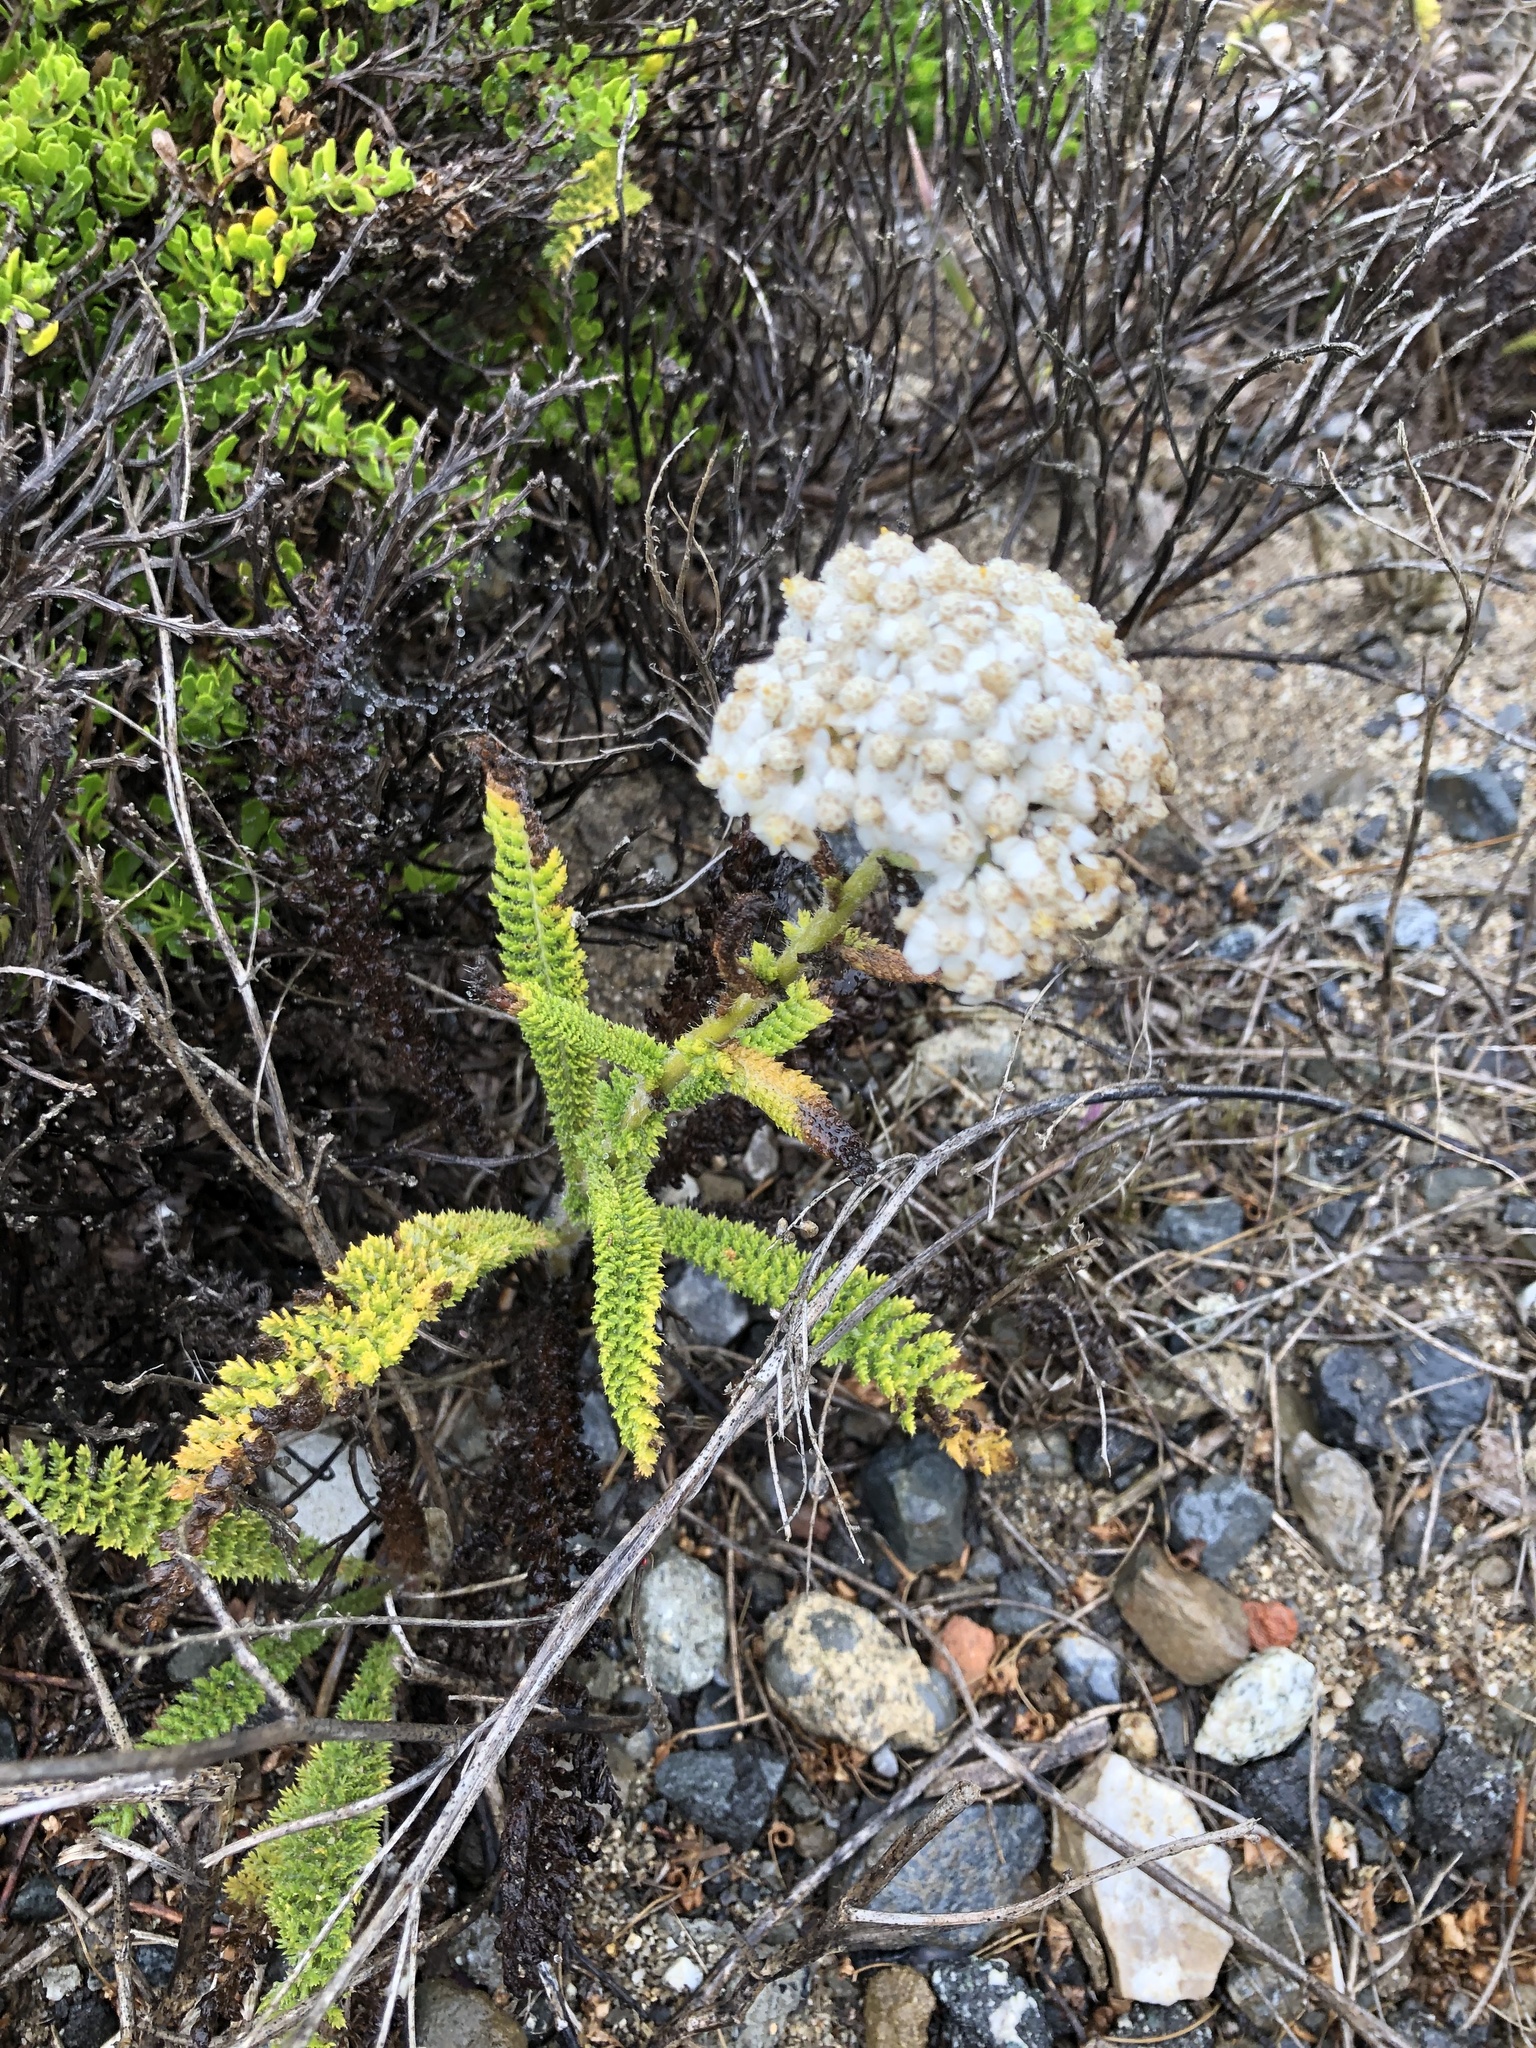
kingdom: Plantae
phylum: Tracheophyta
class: Magnoliopsida
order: Asterales
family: Asteraceae
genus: Achillea
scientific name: Achillea millefolium
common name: Yarrow
